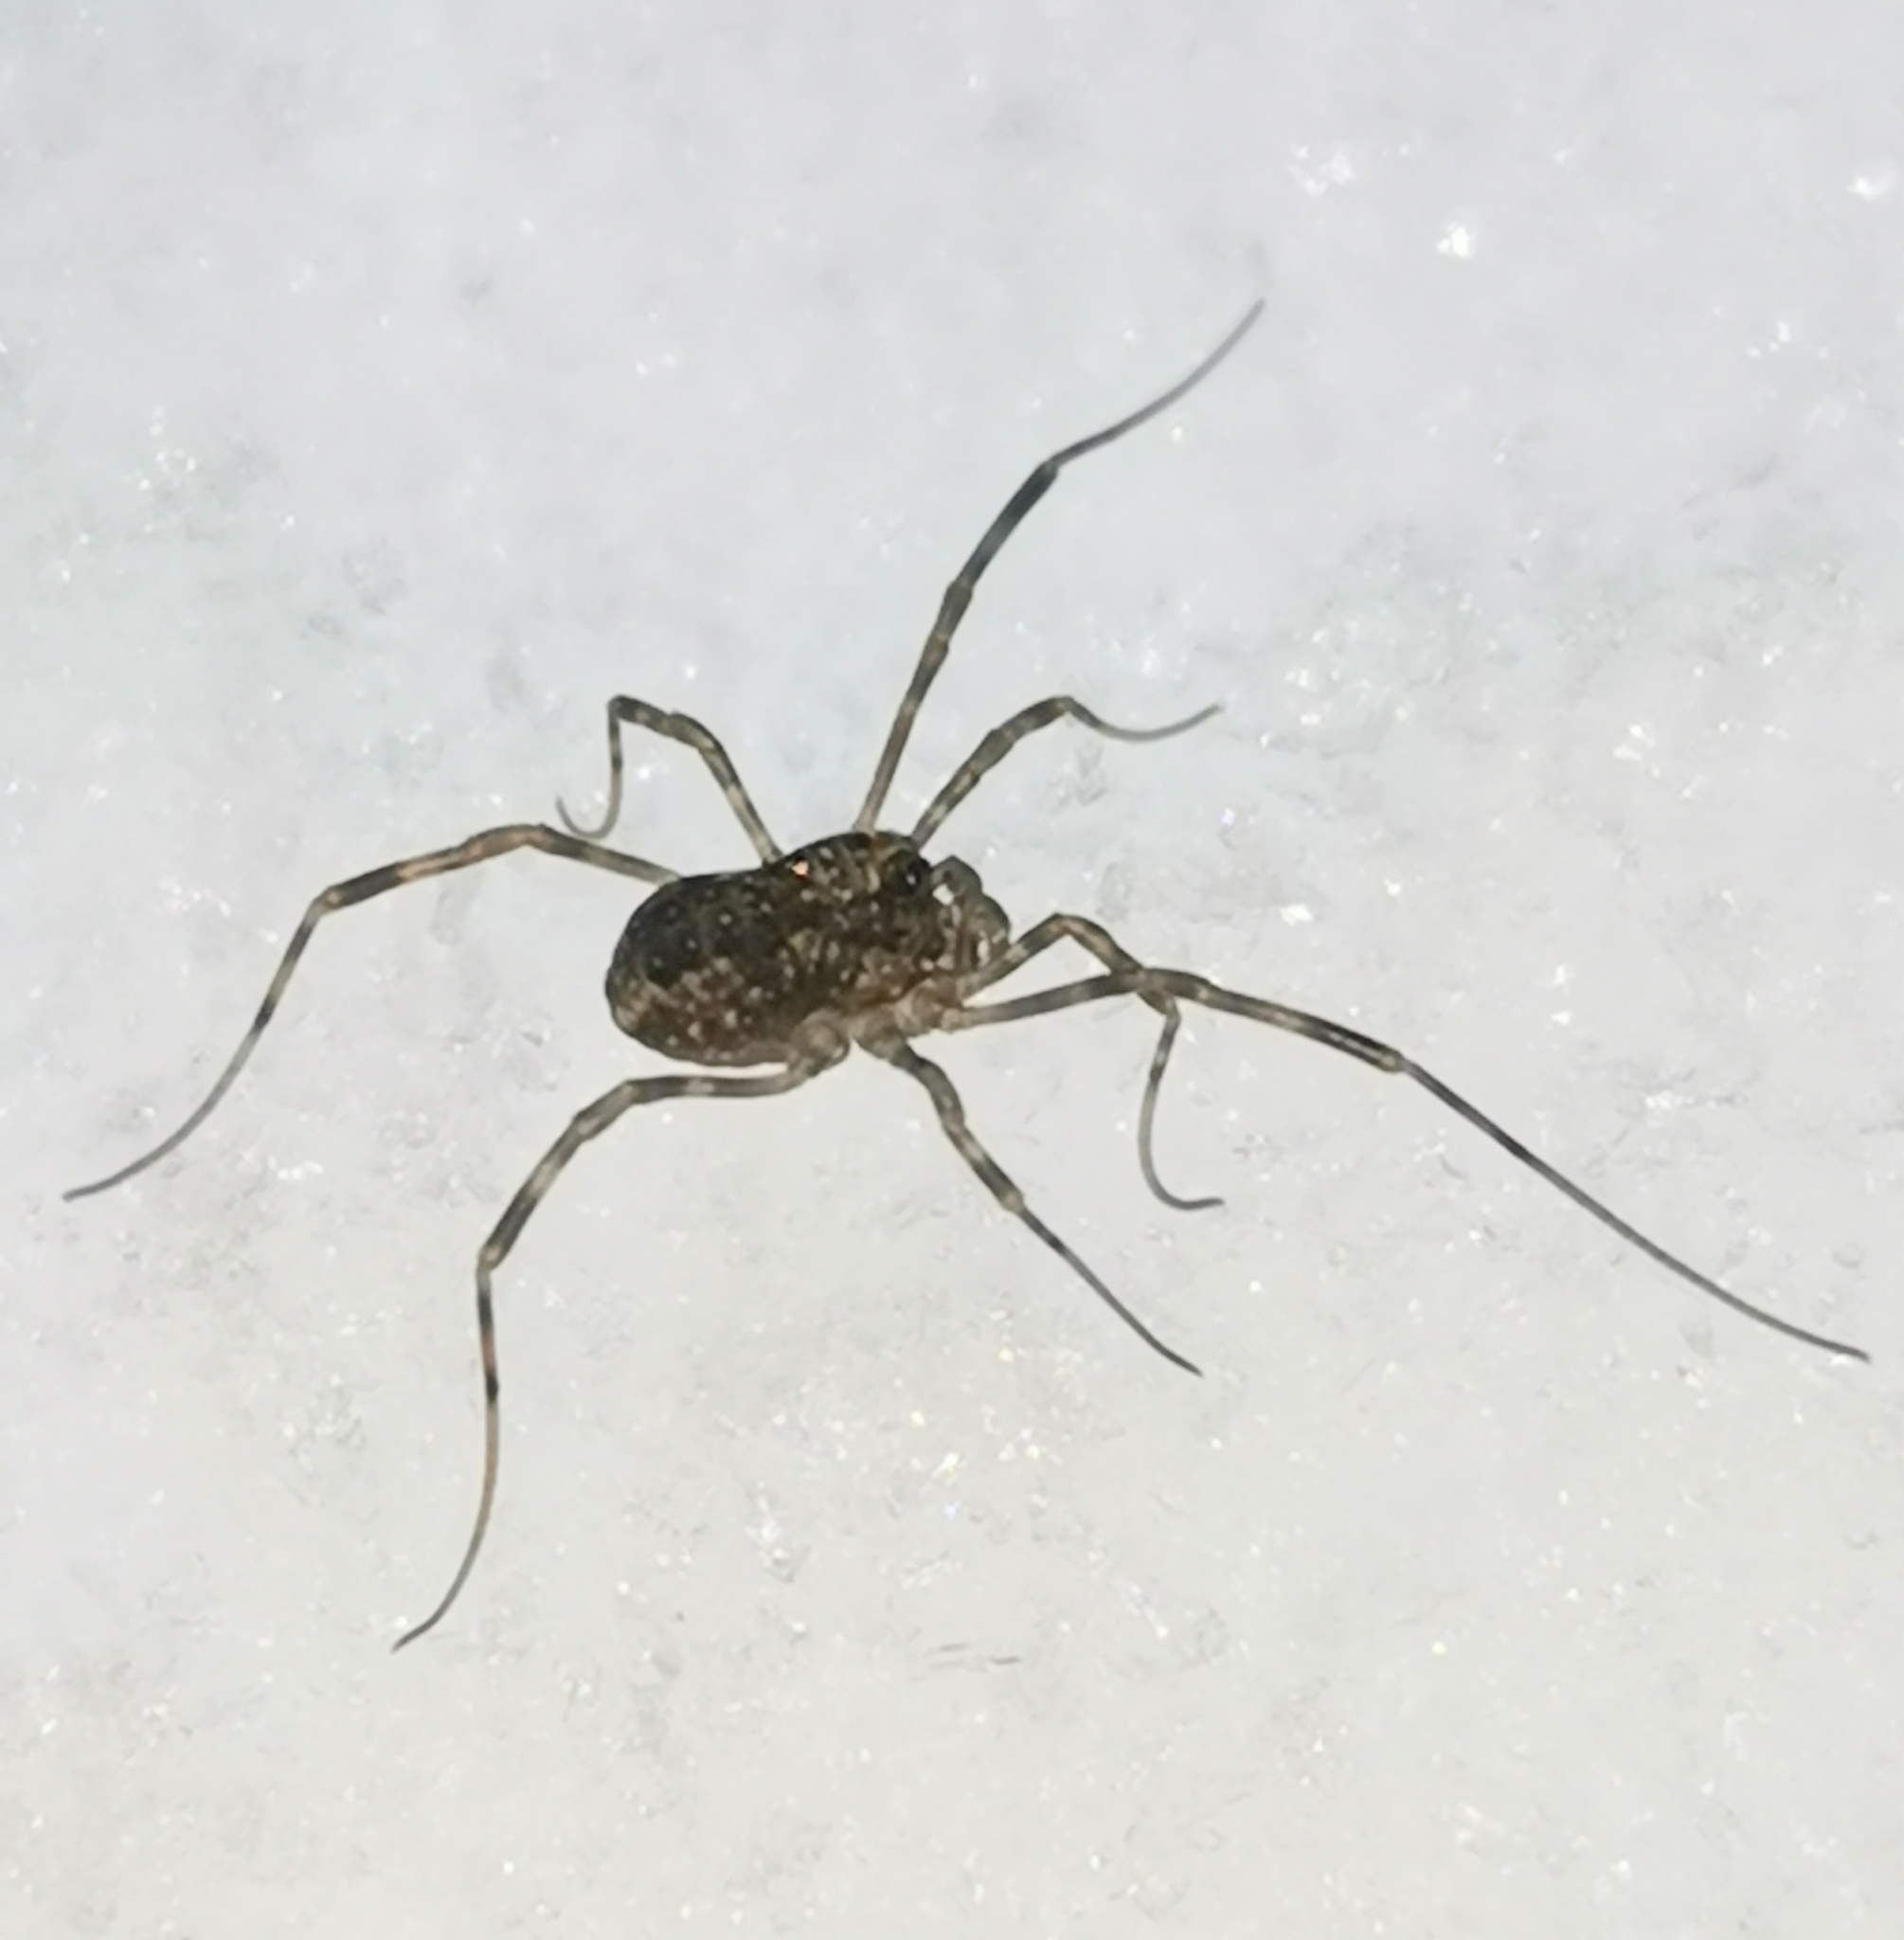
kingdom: Animalia
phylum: Arthropoda
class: Arachnida
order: Opiliones
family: Phalangiidae
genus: Rilaena
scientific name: Rilaena triangularis
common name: Spring harvestman
